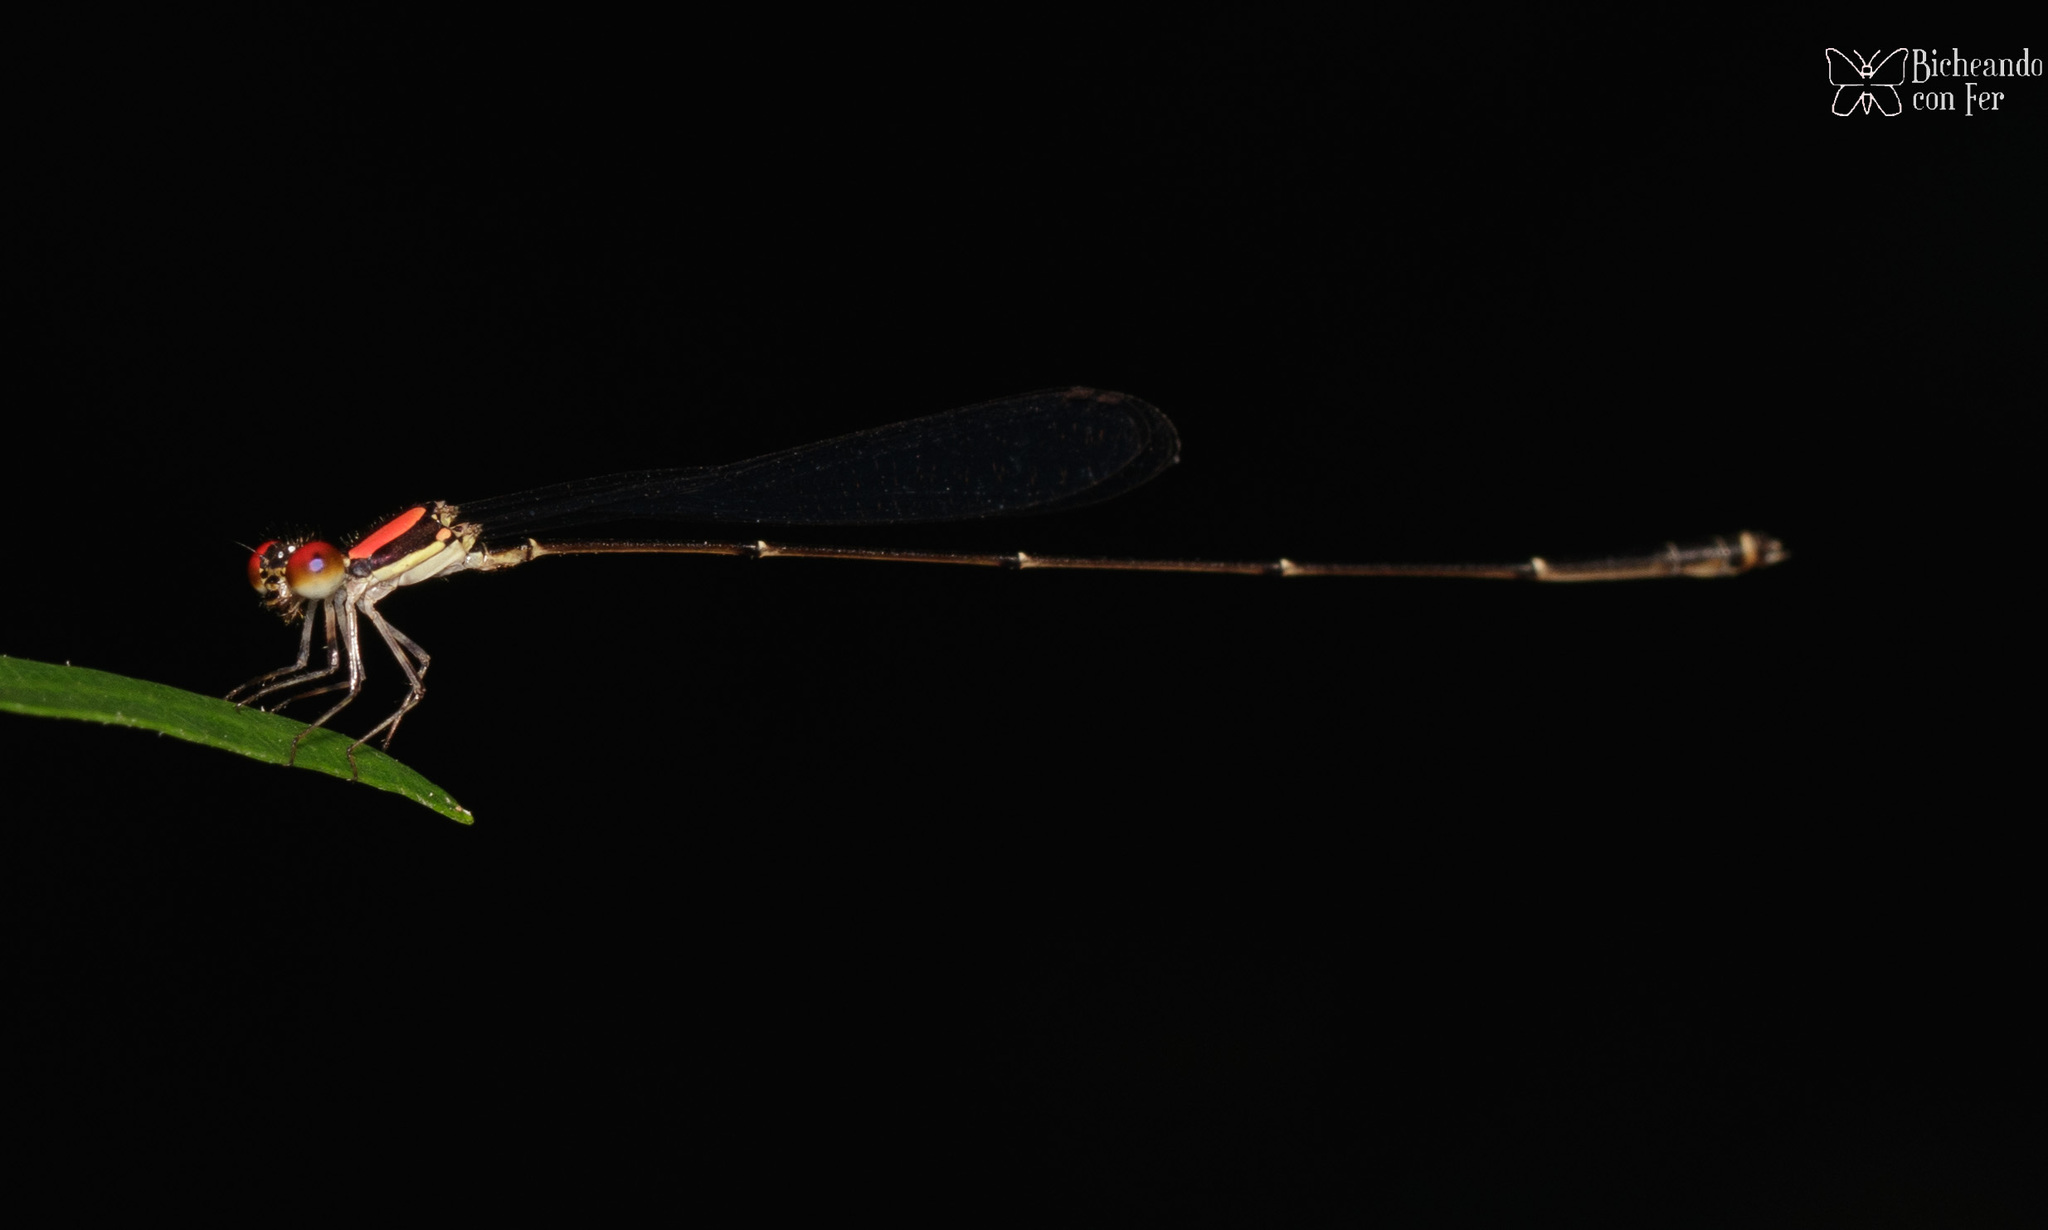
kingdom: Animalia
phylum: Arthropoda
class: Insecta
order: Odonata
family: Coenagrionidae
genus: Protoneura
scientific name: Protoneura corculum
